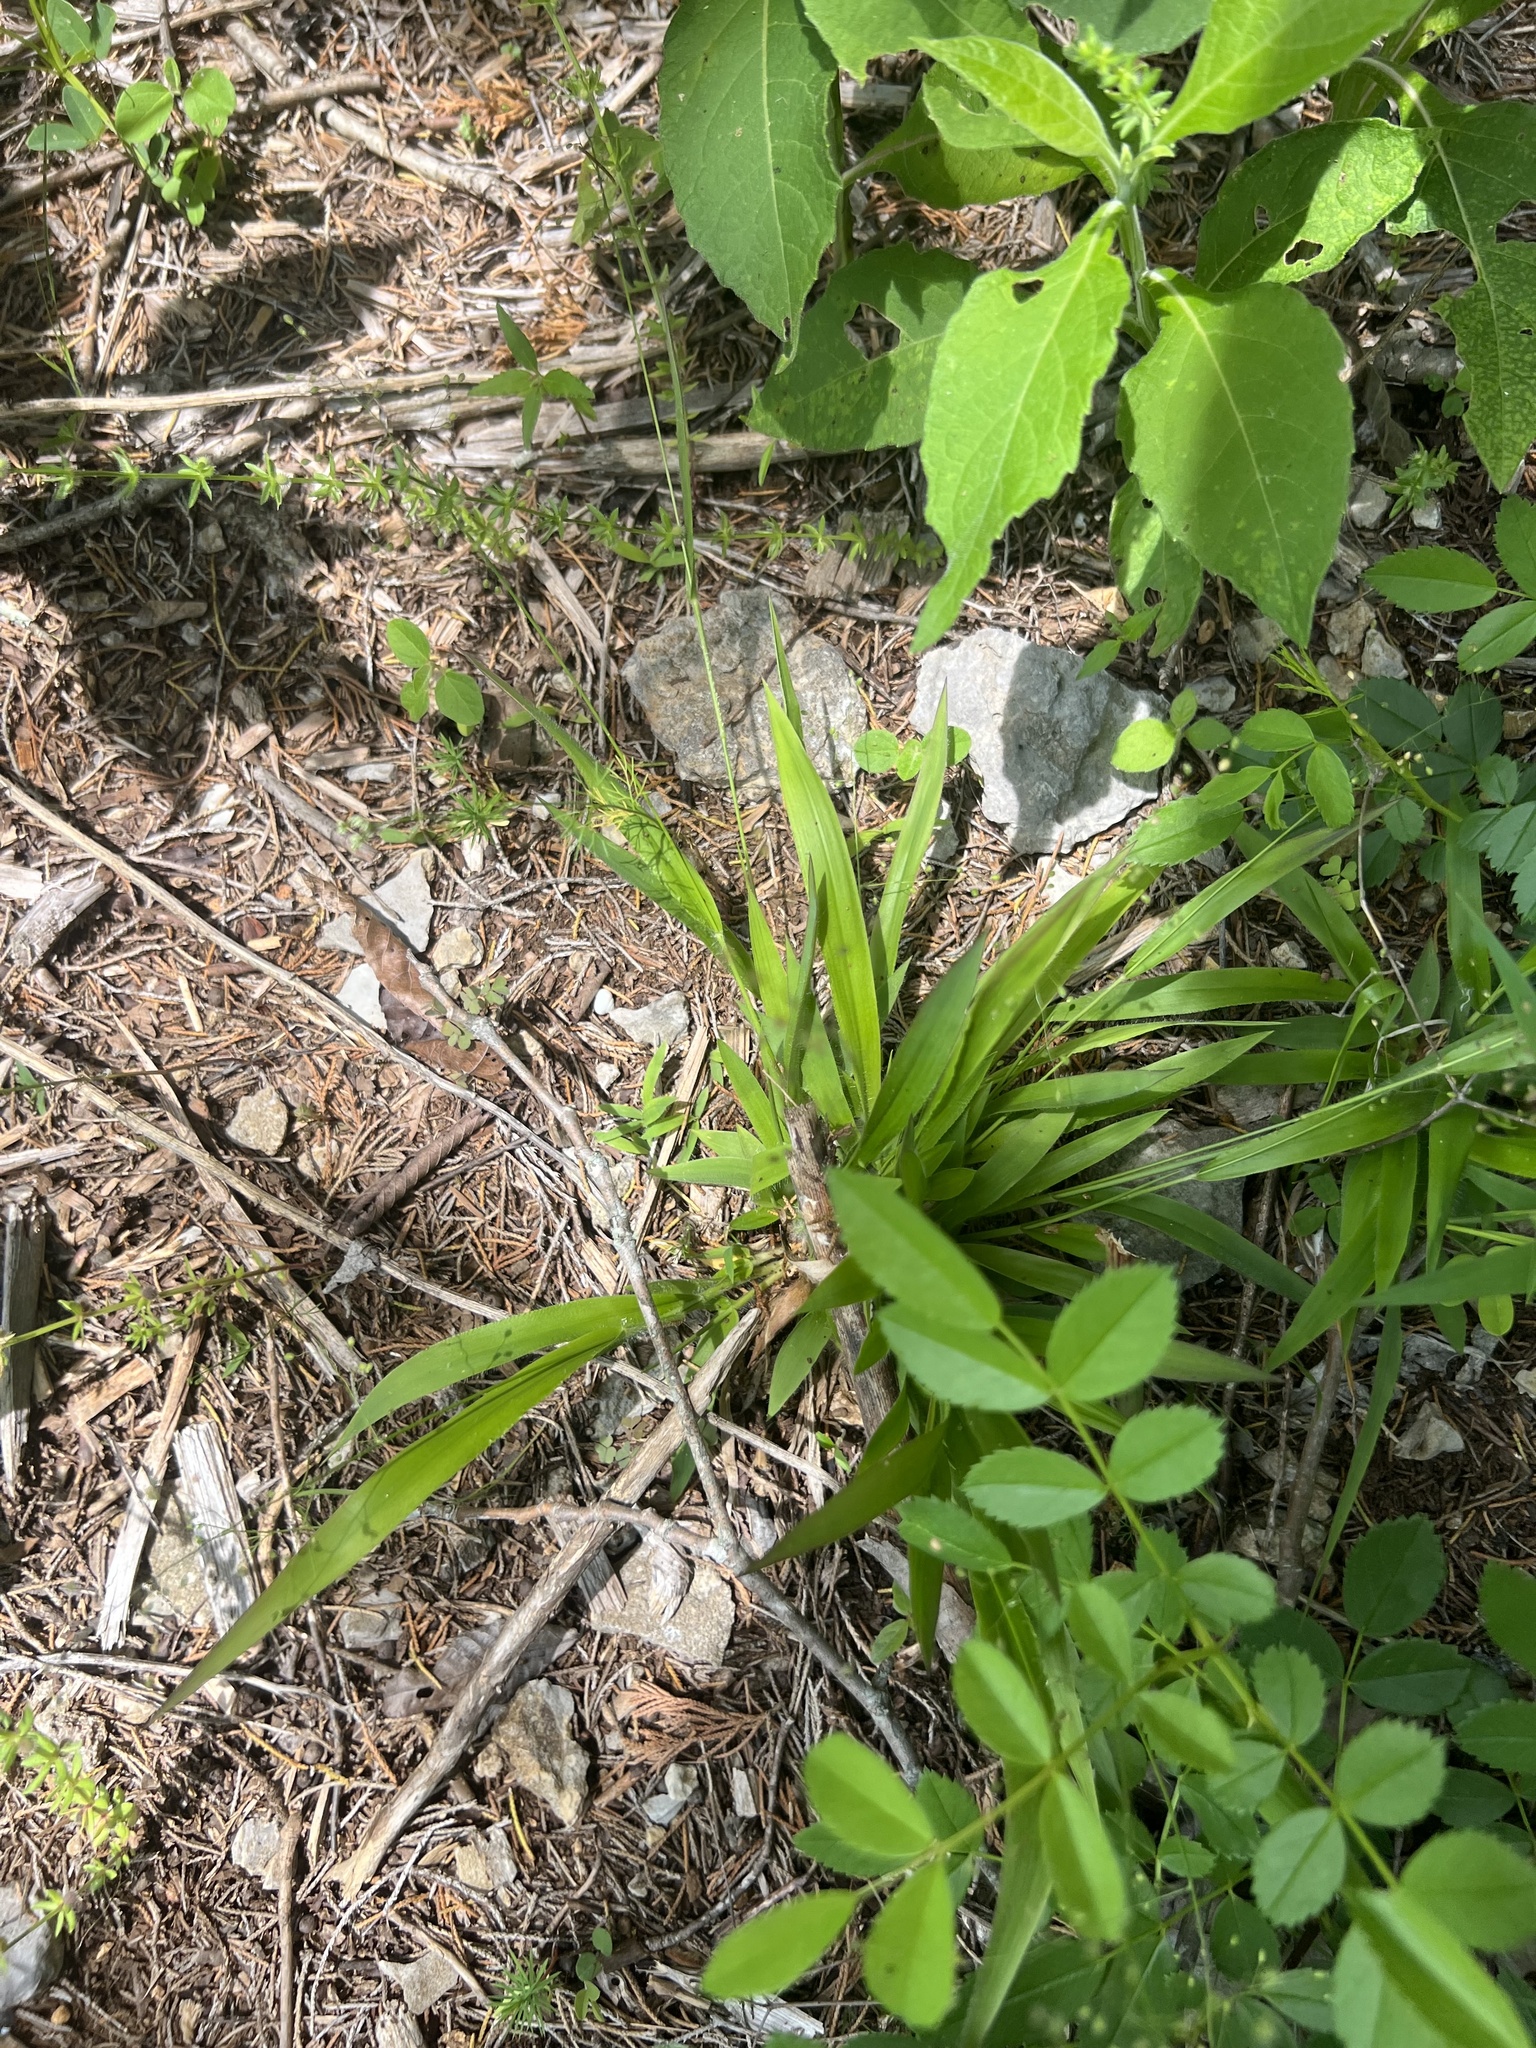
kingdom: Plantae
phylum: Tracheophyta
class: Liliopsida
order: Poales
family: Poaceae
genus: Dichanthelium
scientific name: Dichanthelium laxiflorum
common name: Soft-tuft panic grass
